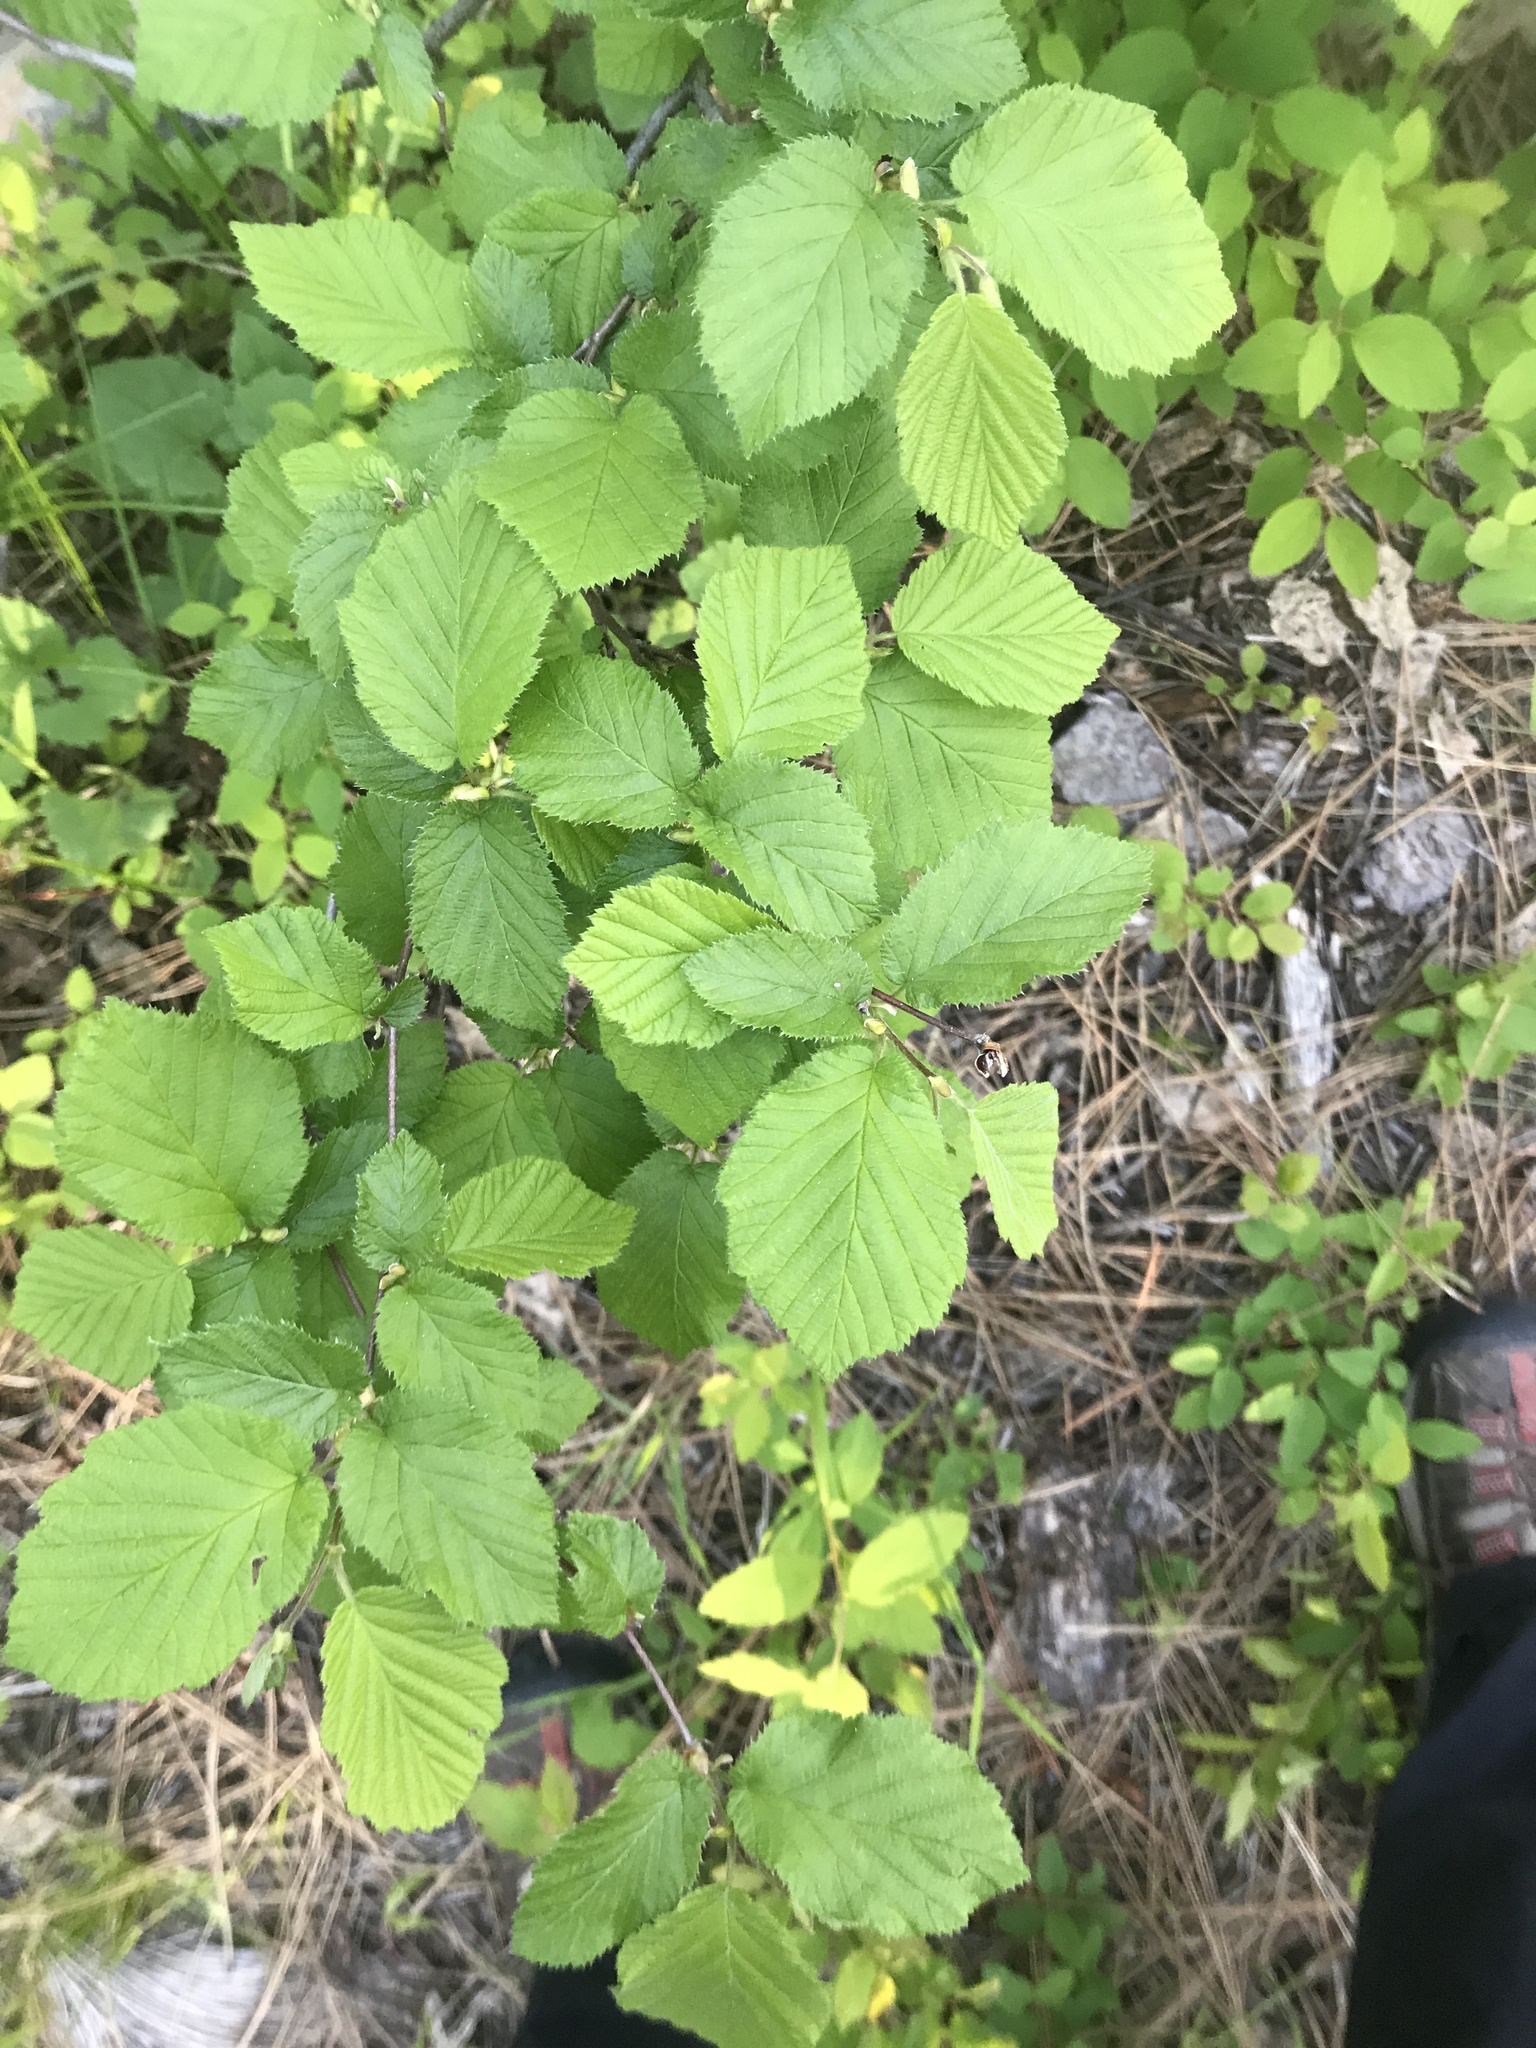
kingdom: Plantae
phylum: Tracheophyta
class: Magnoliopsida
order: Fagales
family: Betulaceae
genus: Corylus
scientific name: Corylus cornuta
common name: Beaked hazel
